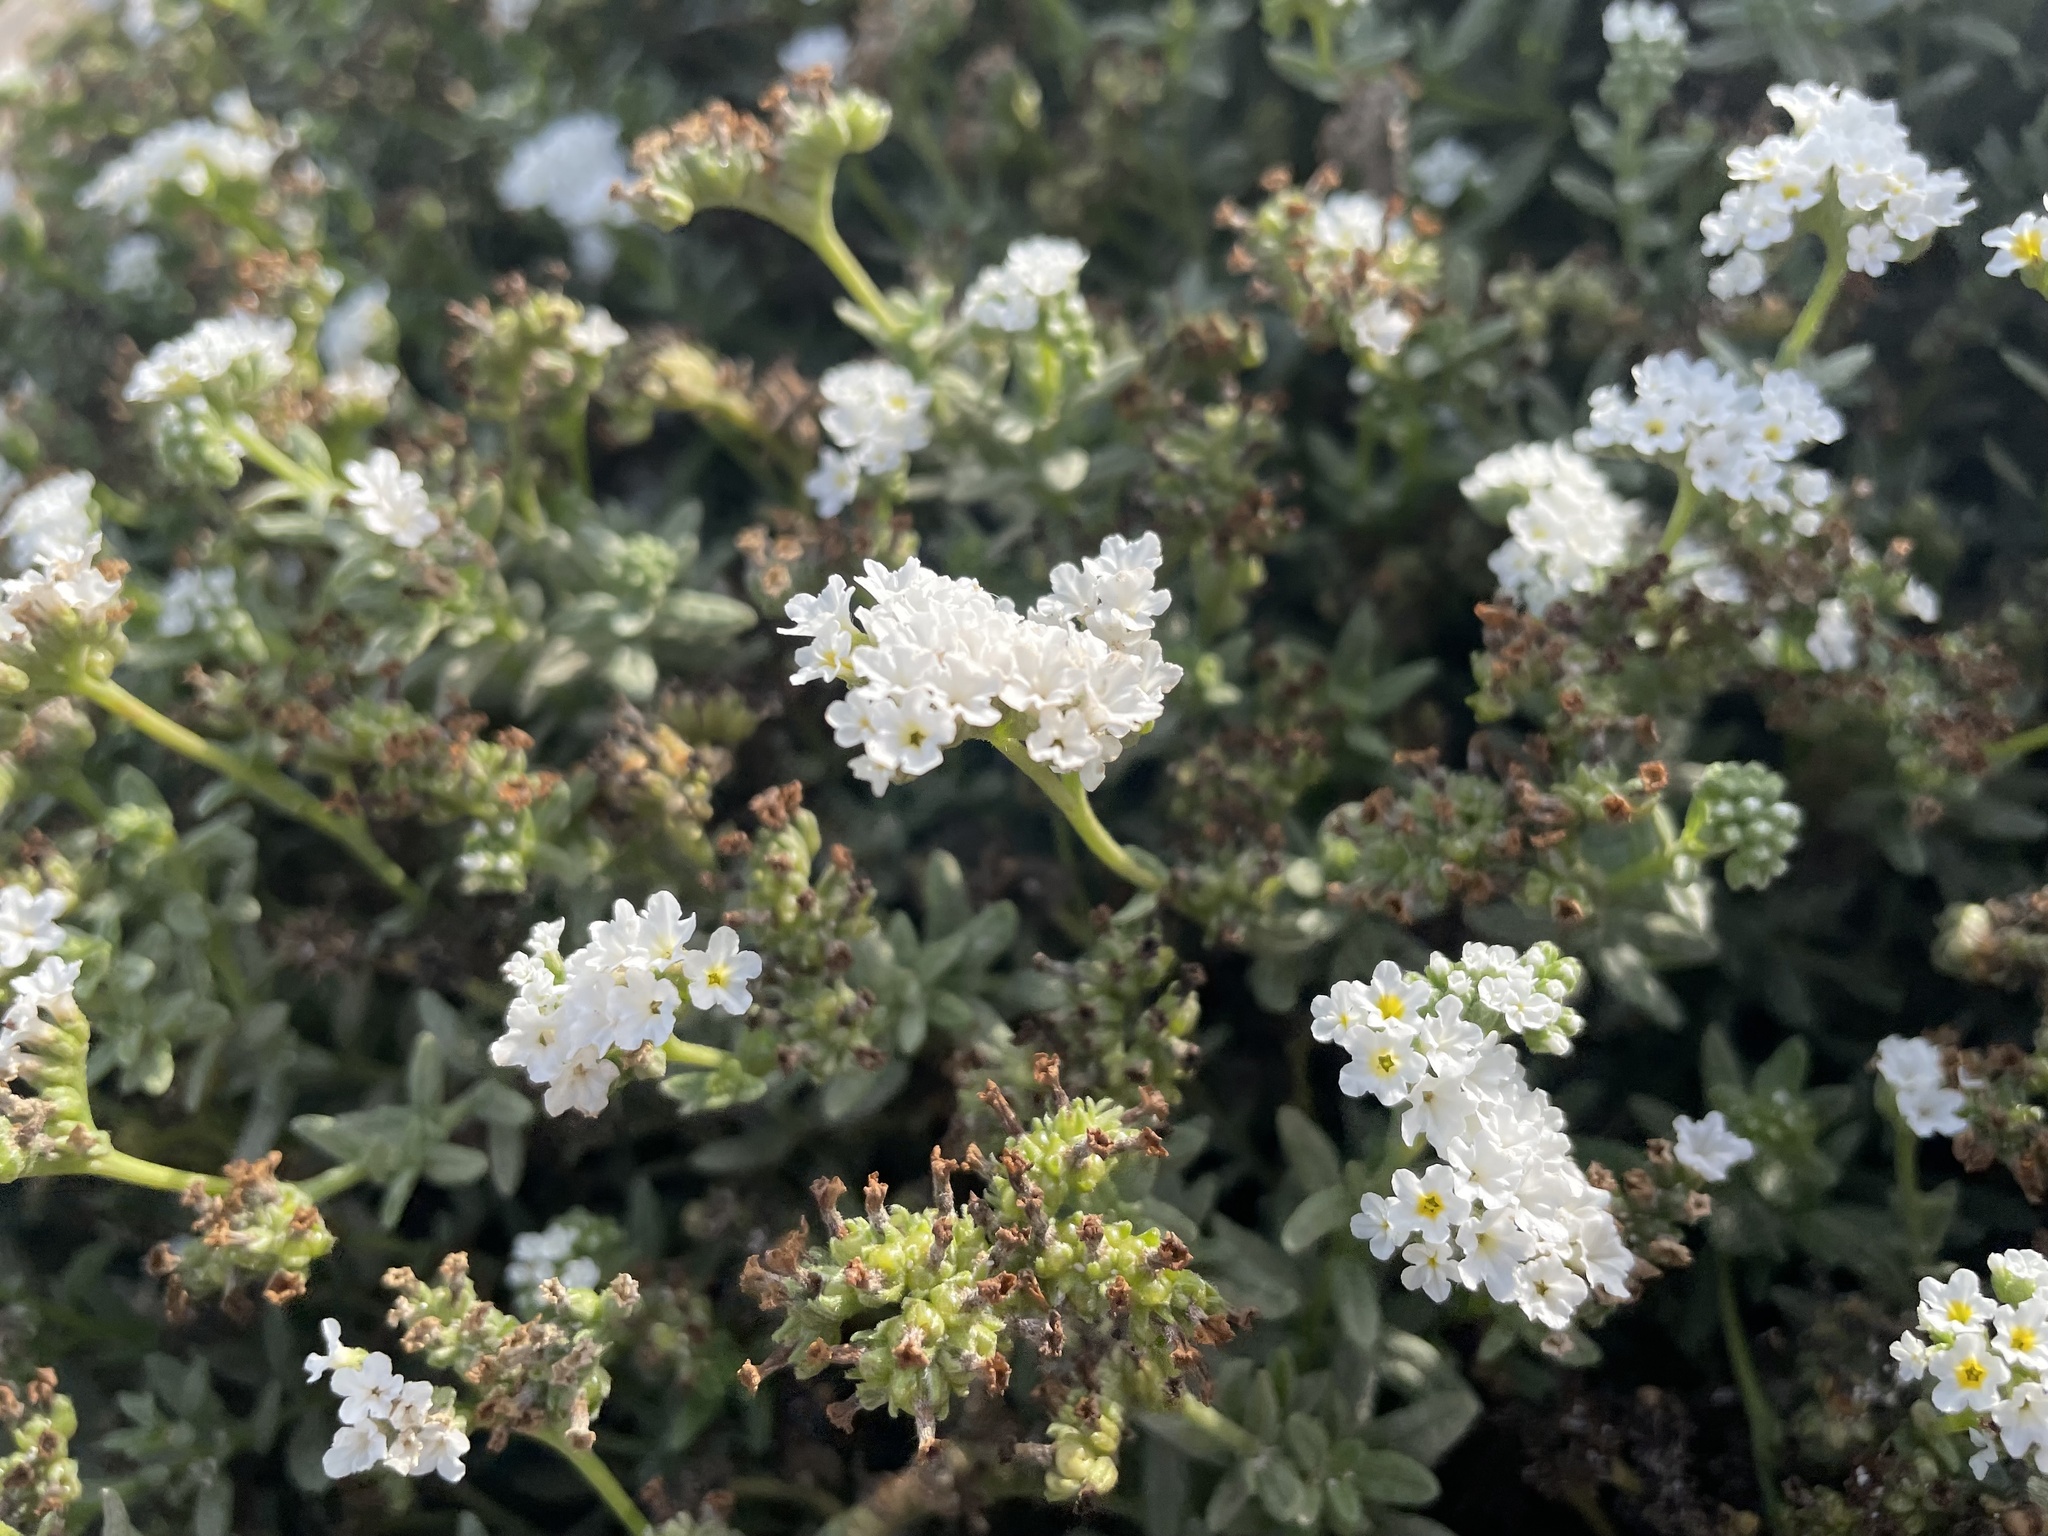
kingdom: Plantae
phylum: Tracheophyta
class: Magnoliopsida
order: Boraginales
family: Heliotropiaceae
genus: Heliotropium
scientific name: Heliotropium ramosissimum
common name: Wavy heliotrope
